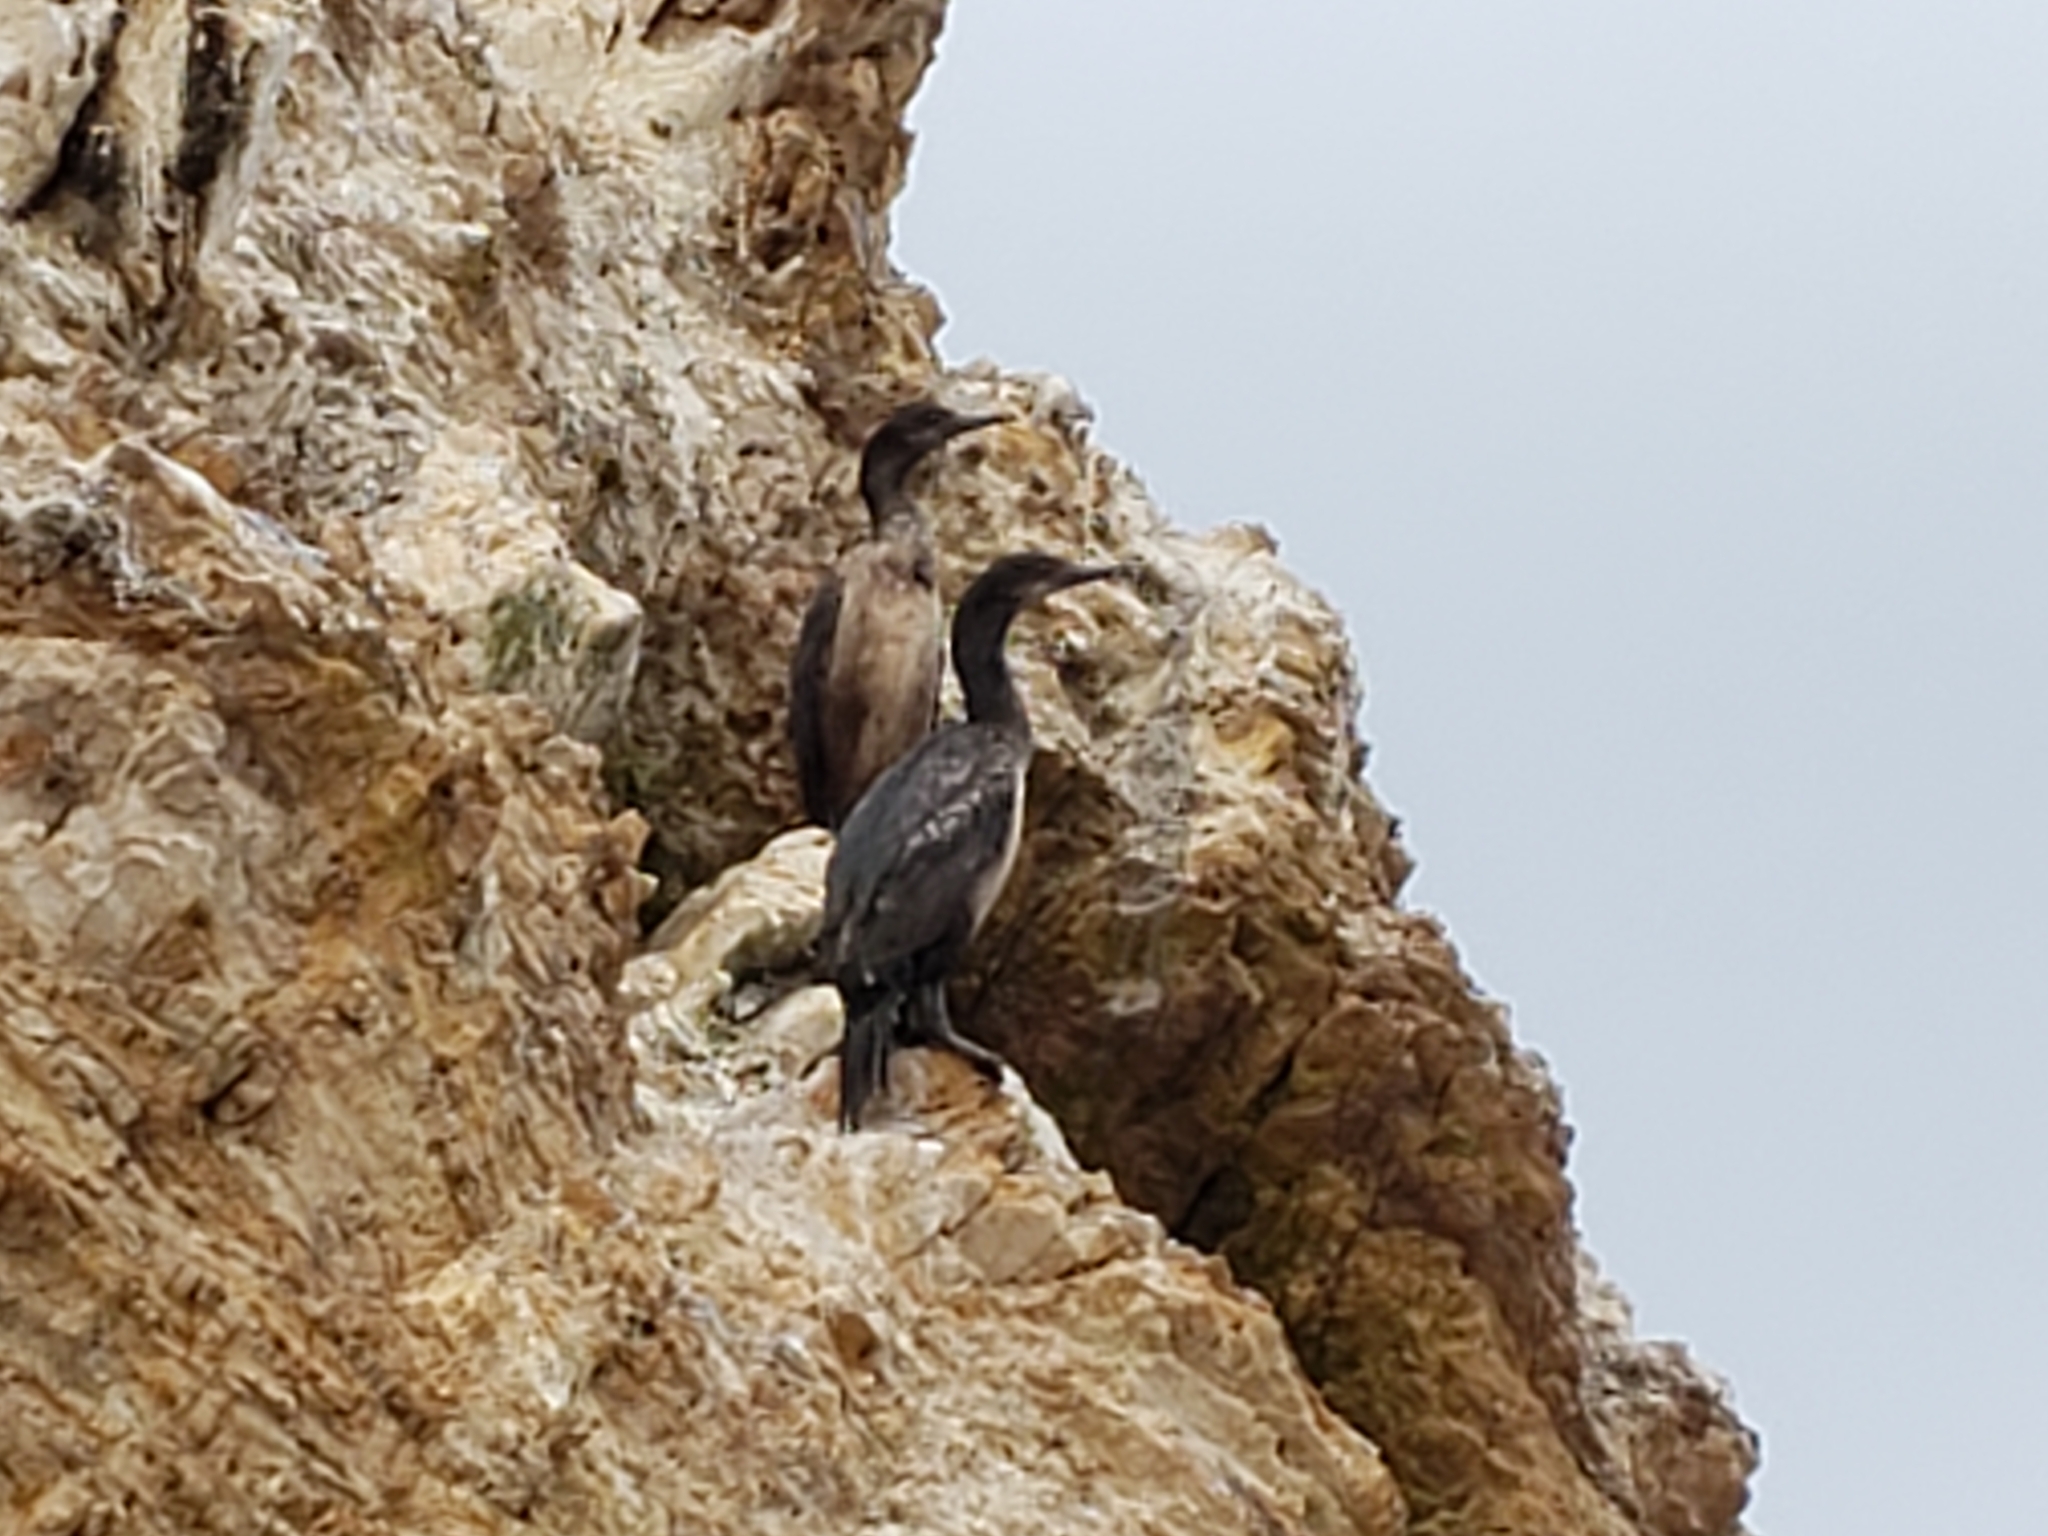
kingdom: Animalia
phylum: Chordata
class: Aves
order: Suliformes
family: Phalacrocoracidae
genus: Urile
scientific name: Urile penicillatus
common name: Brandt's cormorant
